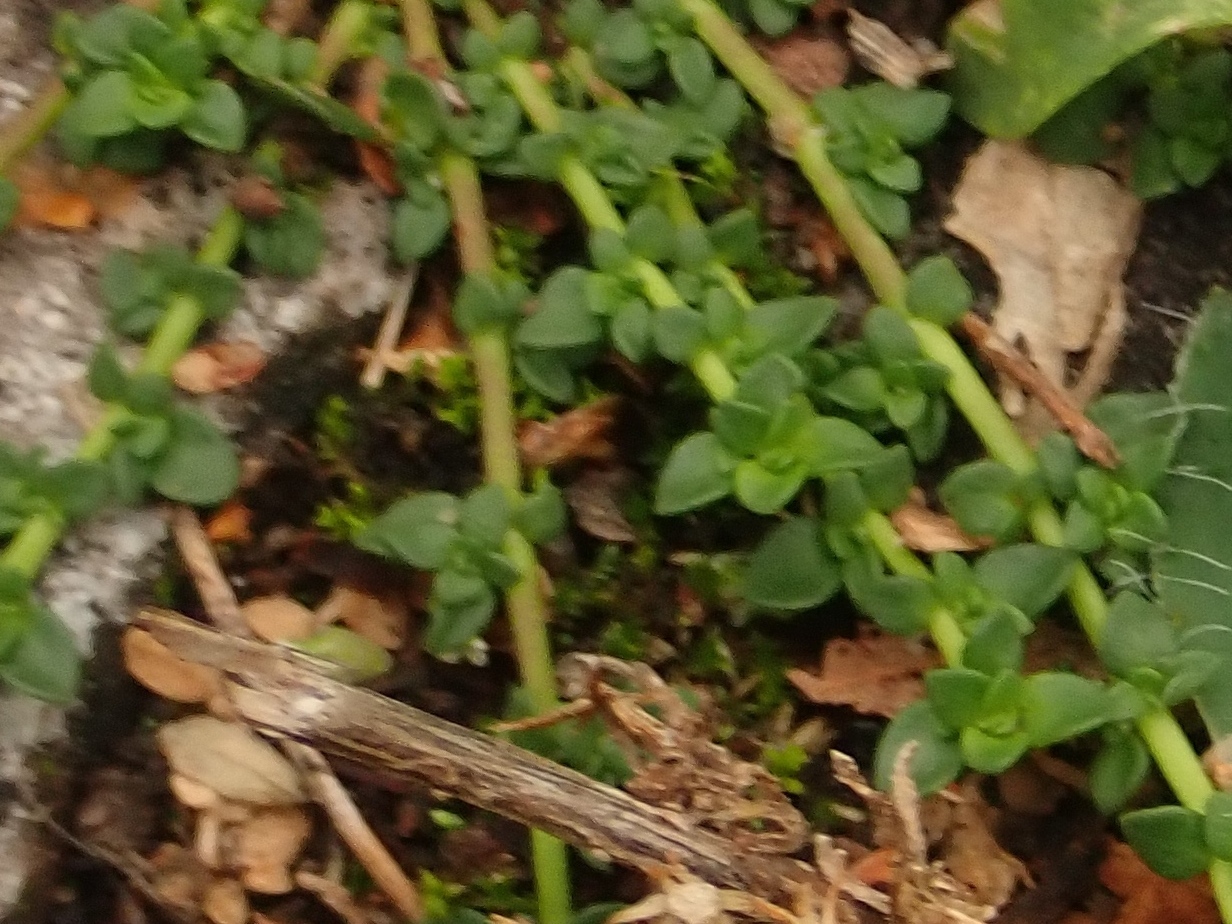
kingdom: Plantae
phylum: Tracheophyta
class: Magnoliopsida
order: Caryophyllales
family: Caryophyllaceae
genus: Herniaria
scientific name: Herniaria glabra
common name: Smooth rupturewort
